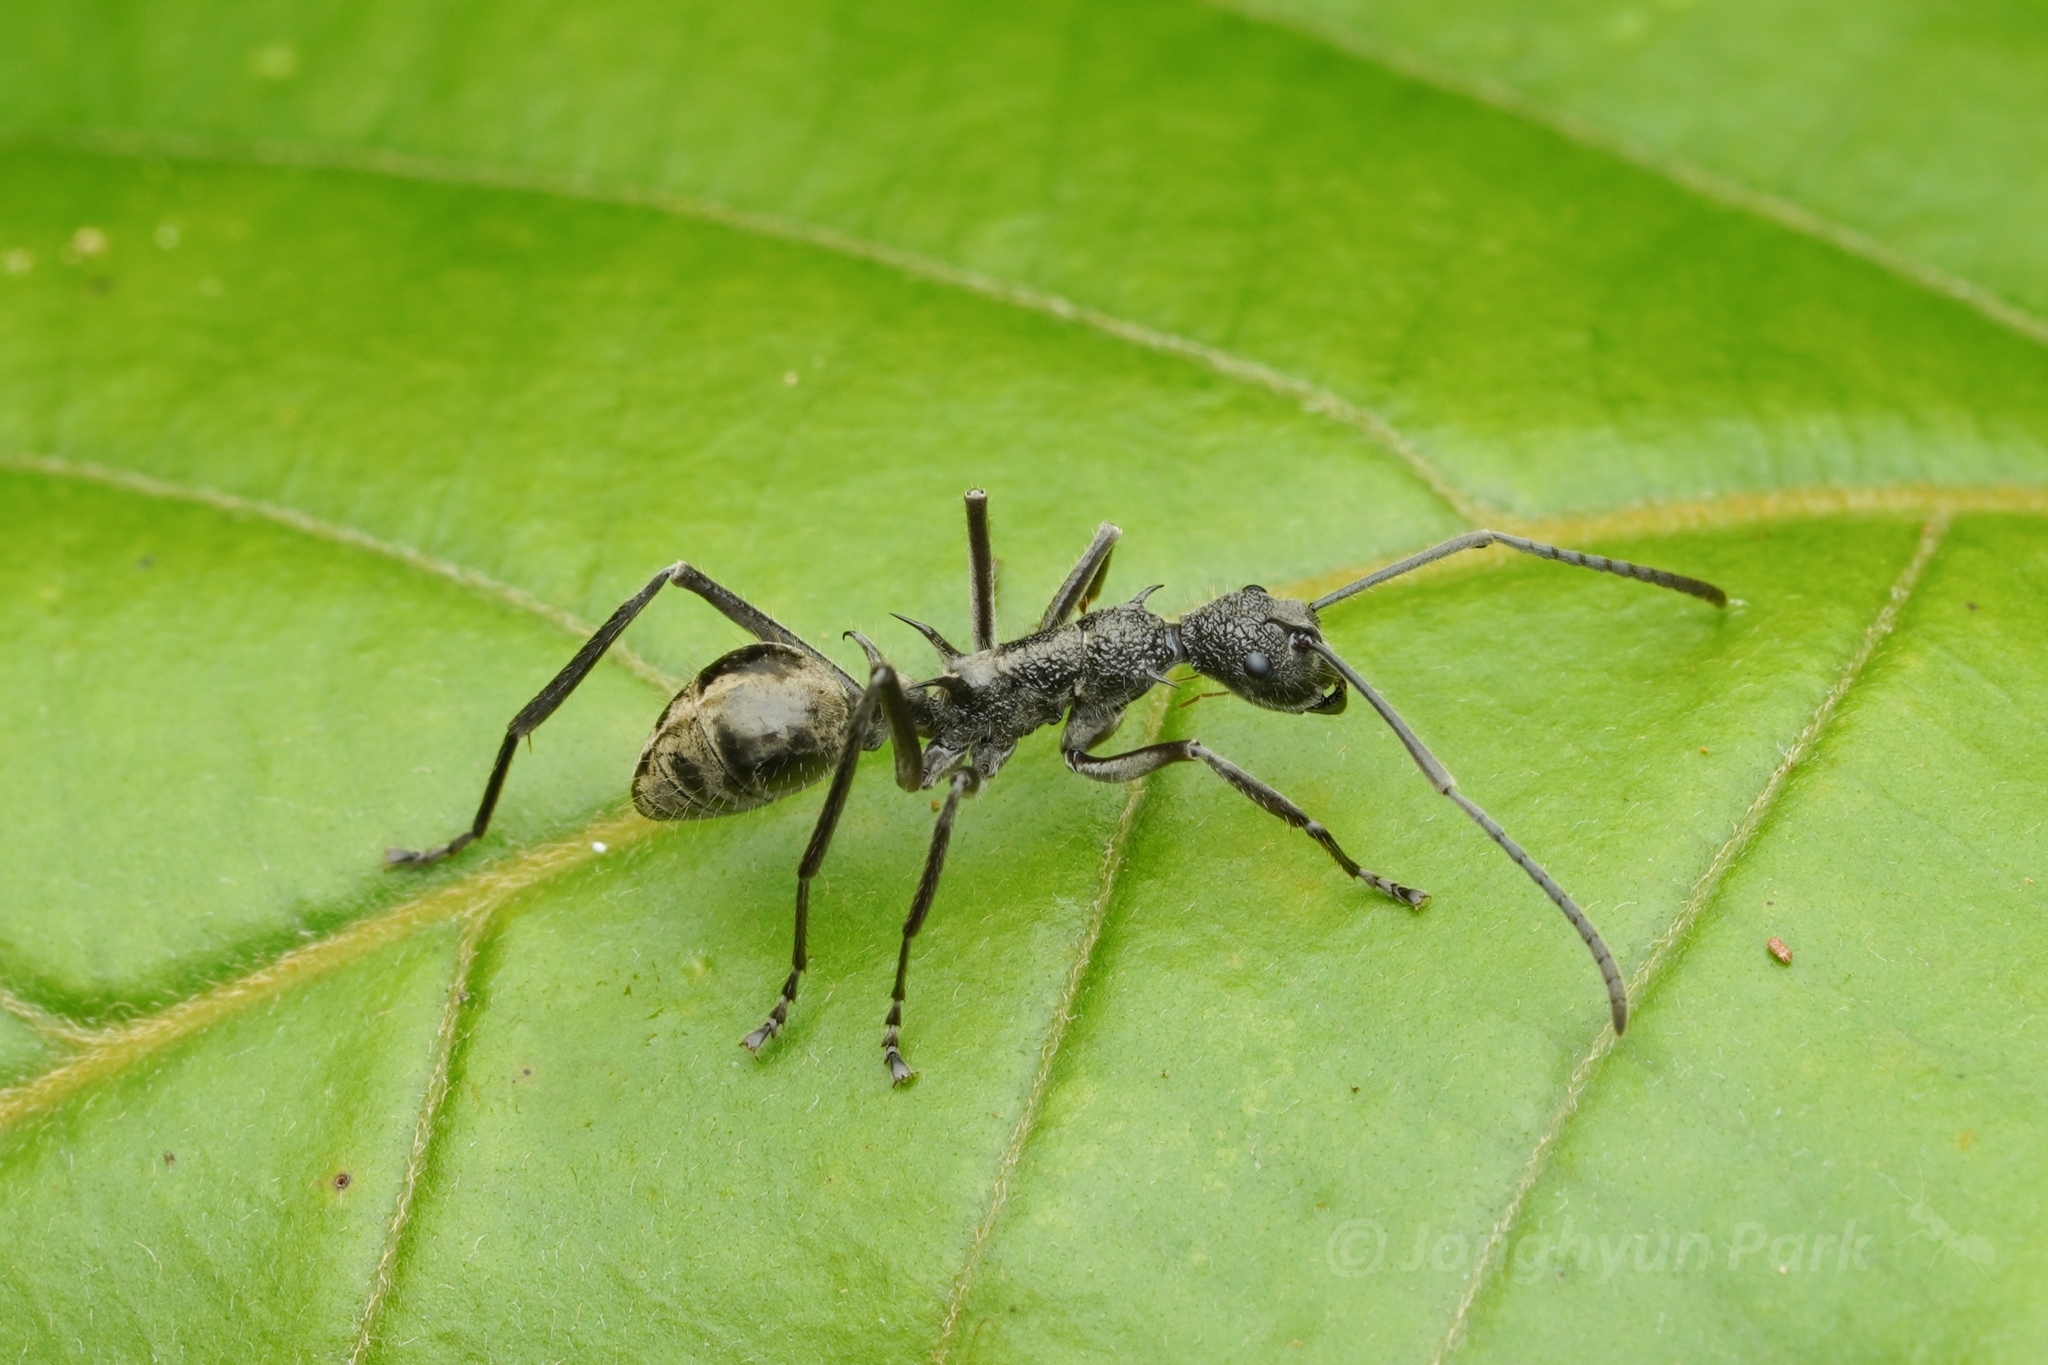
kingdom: Animalia
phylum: Arthropoda
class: Insecta
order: Hymenoptera
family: Formicidae
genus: Polyrhachis
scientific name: Polyrhachis calypso
